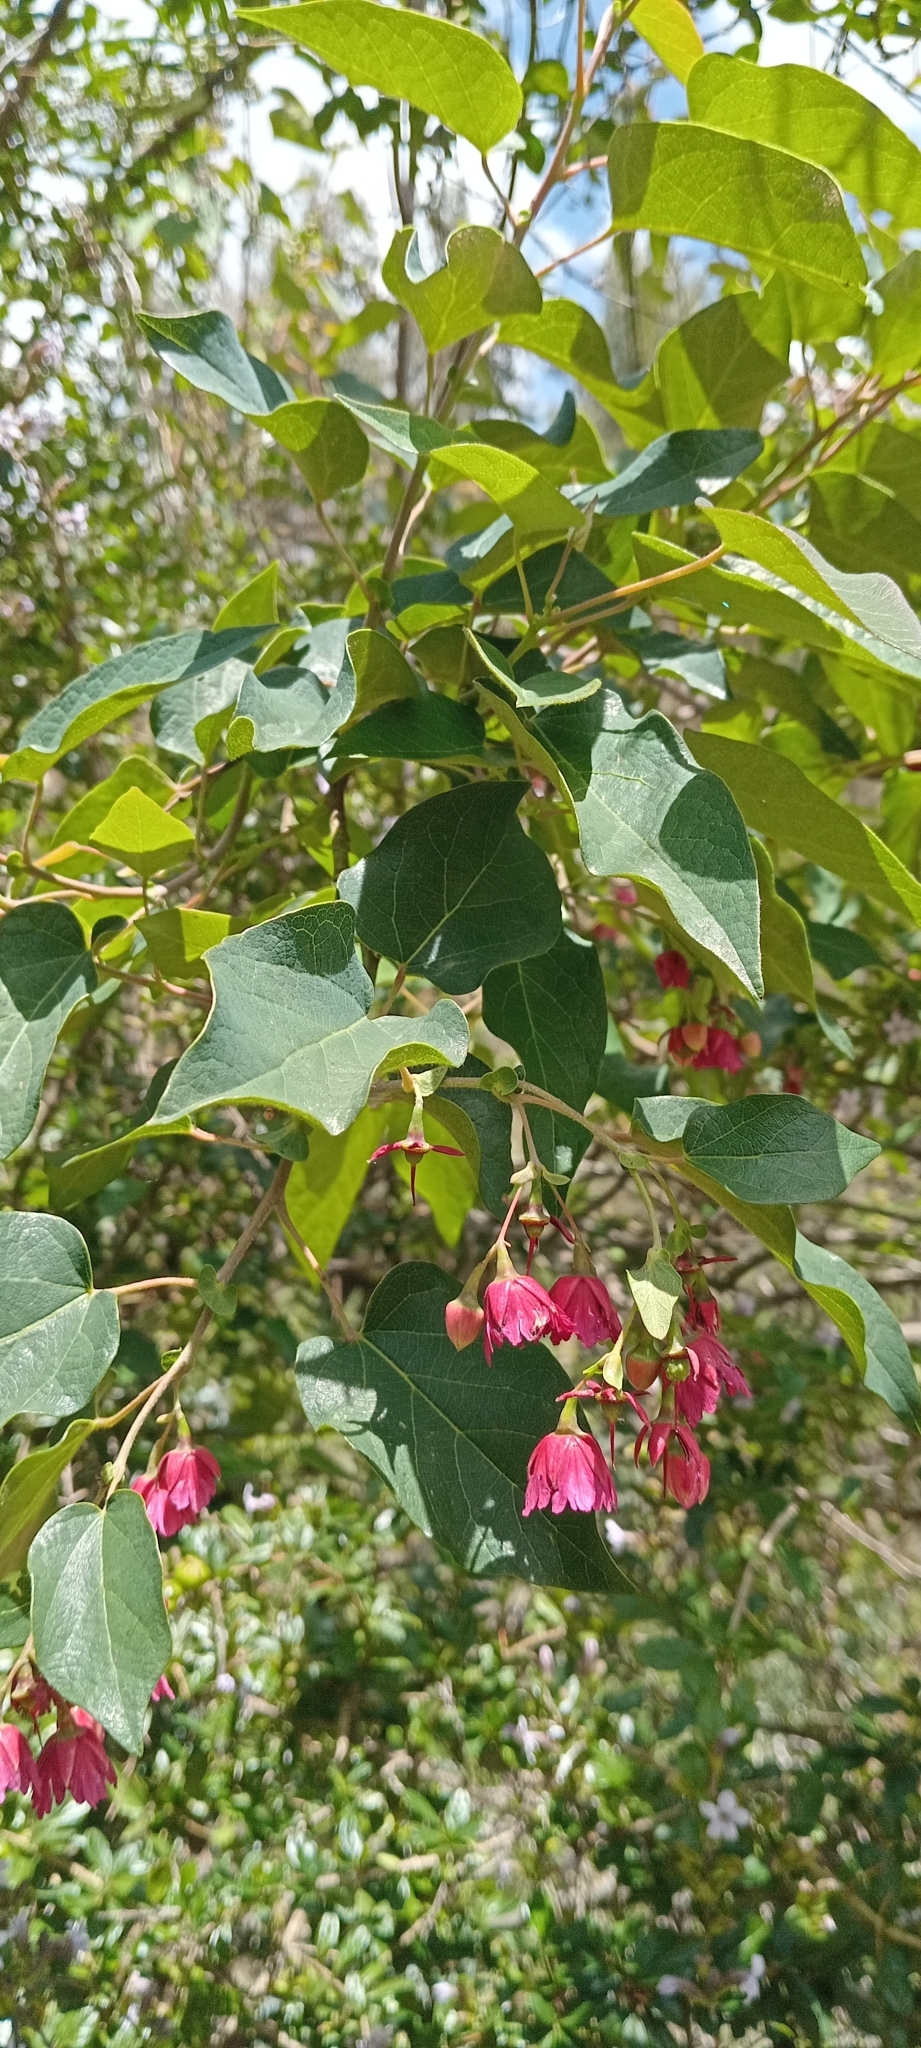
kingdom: Plantae
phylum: Tracheophyta
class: Magnoliopsida
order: Oxalidales
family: Elaeocarpaceae
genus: Vallea
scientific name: Vallea stipularis
